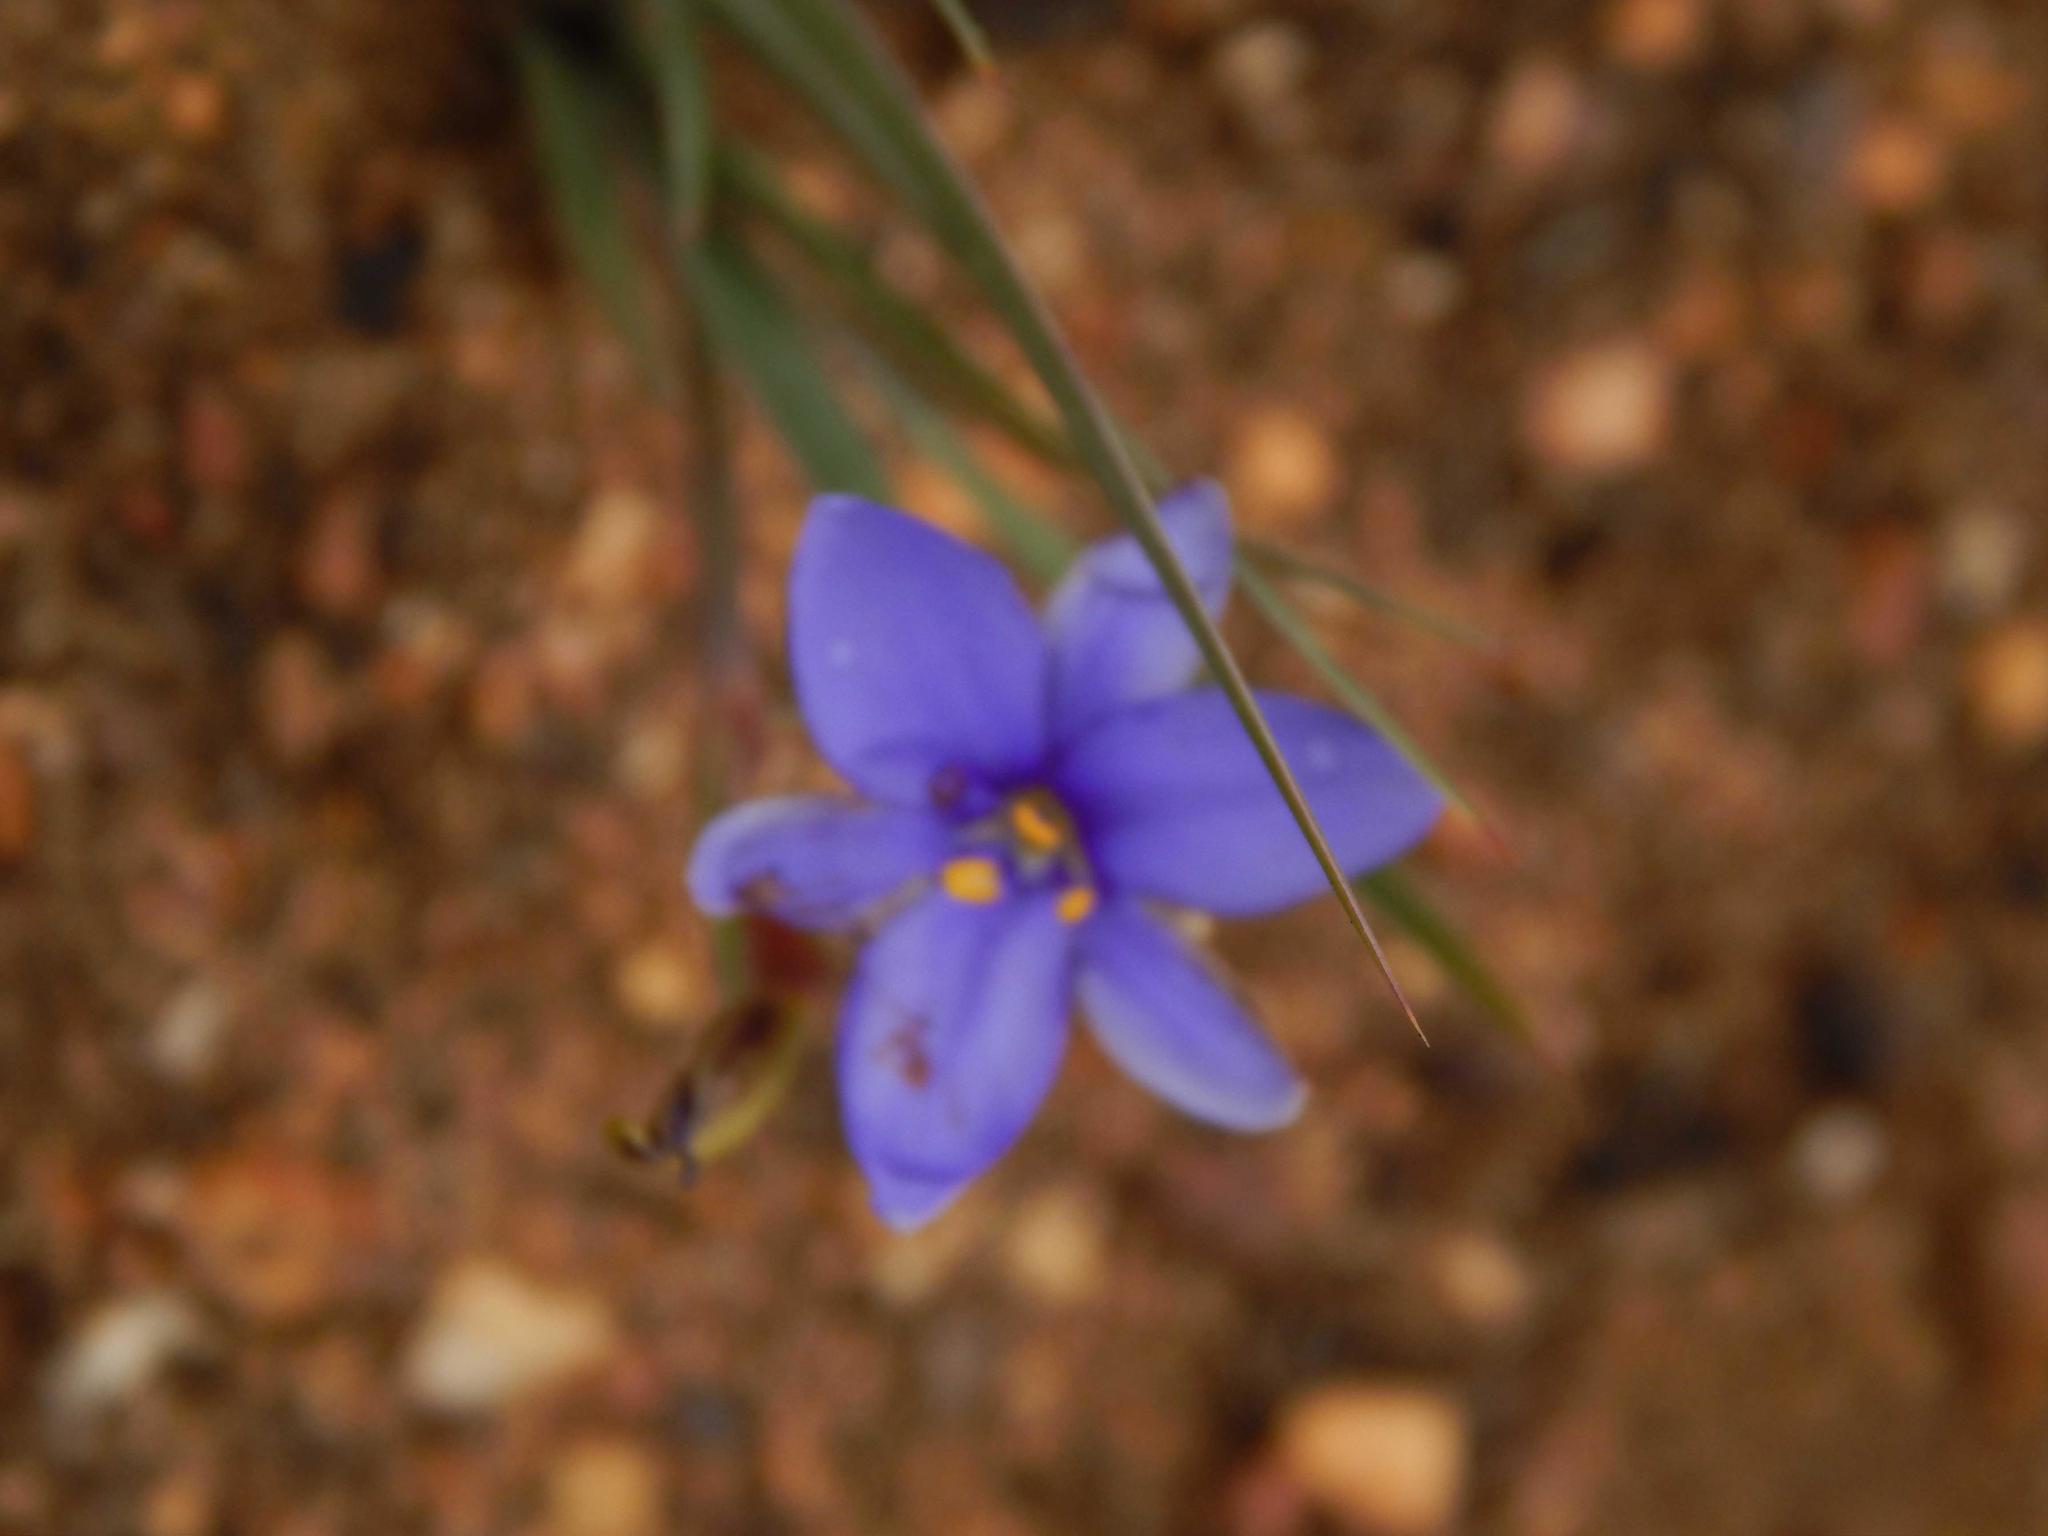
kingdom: Plantae
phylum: Tracheophyta
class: Liliopsida
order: Asparagales
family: Iridaceae
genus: Aristea
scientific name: Aristea pusilla
